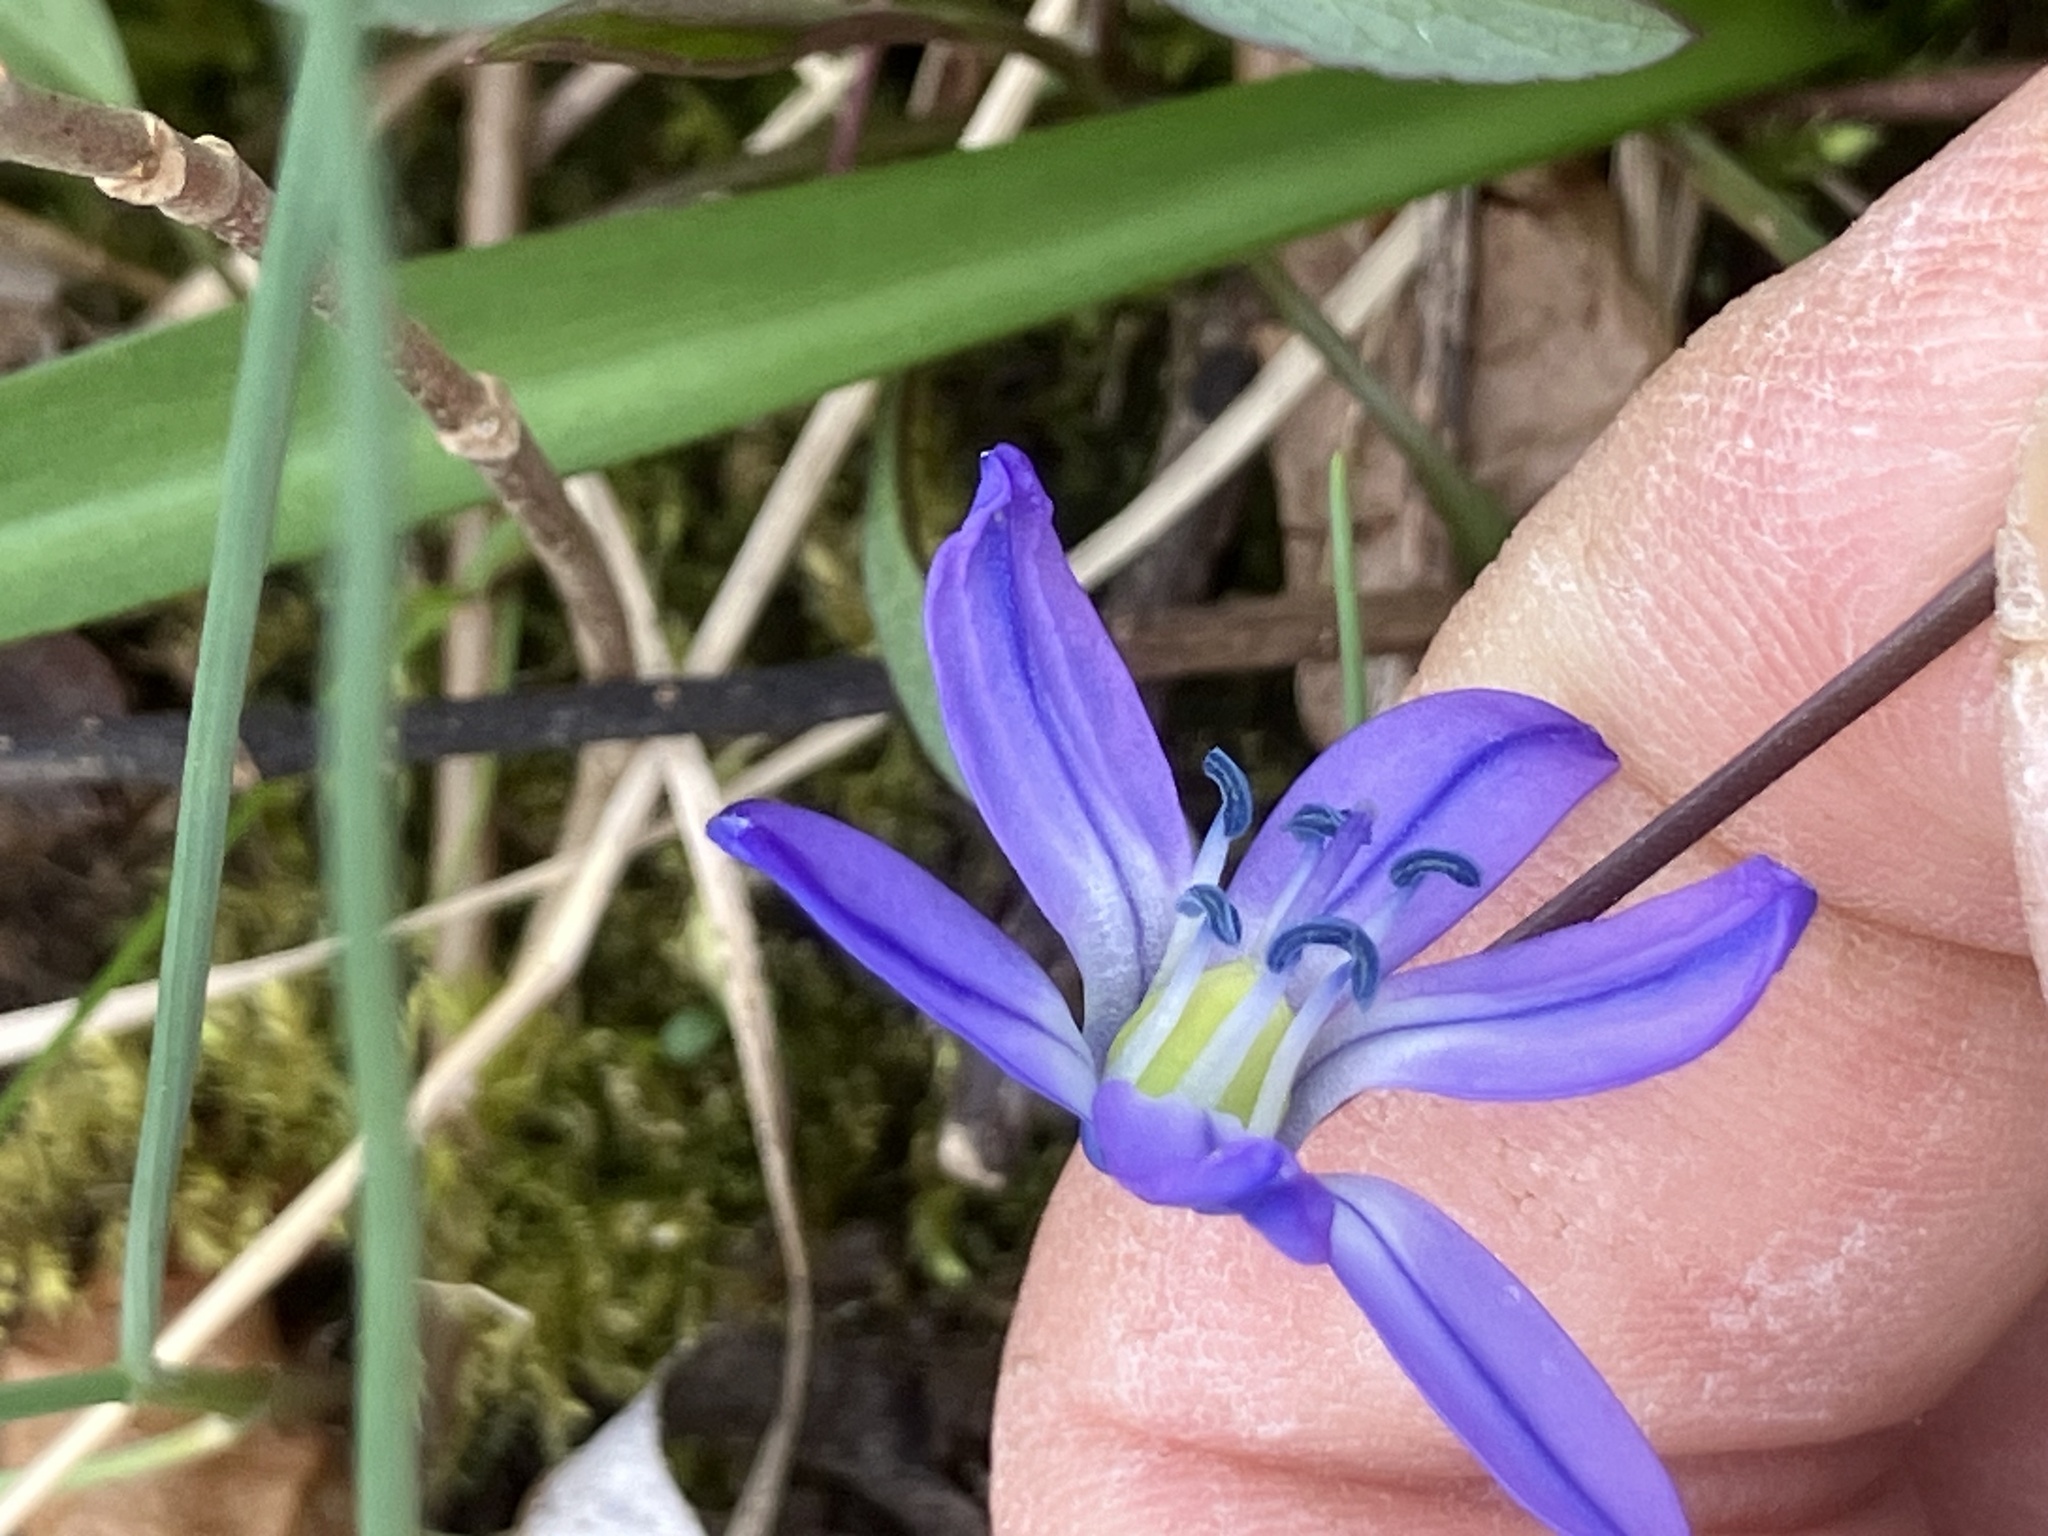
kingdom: Plantae
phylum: Tracheophyta
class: Liliopsida
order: Asparagales
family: Asparagaceae
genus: Scilla
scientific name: Scilla siberica
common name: Siberian squill
